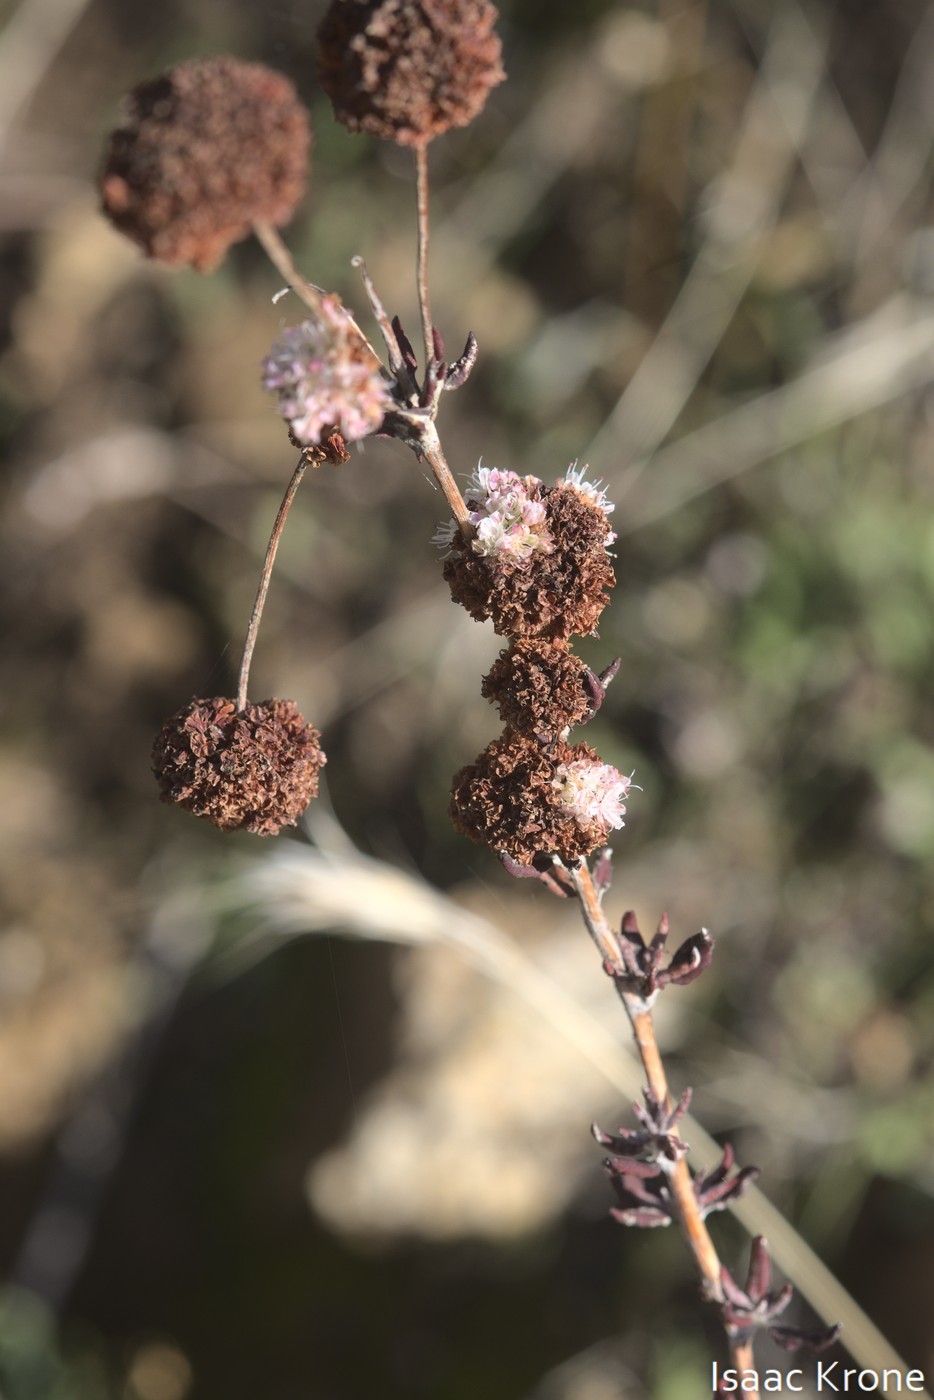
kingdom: Plantae
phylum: Tracheophyta
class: Magnoliopsida
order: Caryophyllales
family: Polygonaceae
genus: Eriogonum
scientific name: Eriogonum fasciculatum
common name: California wild buckwheat
